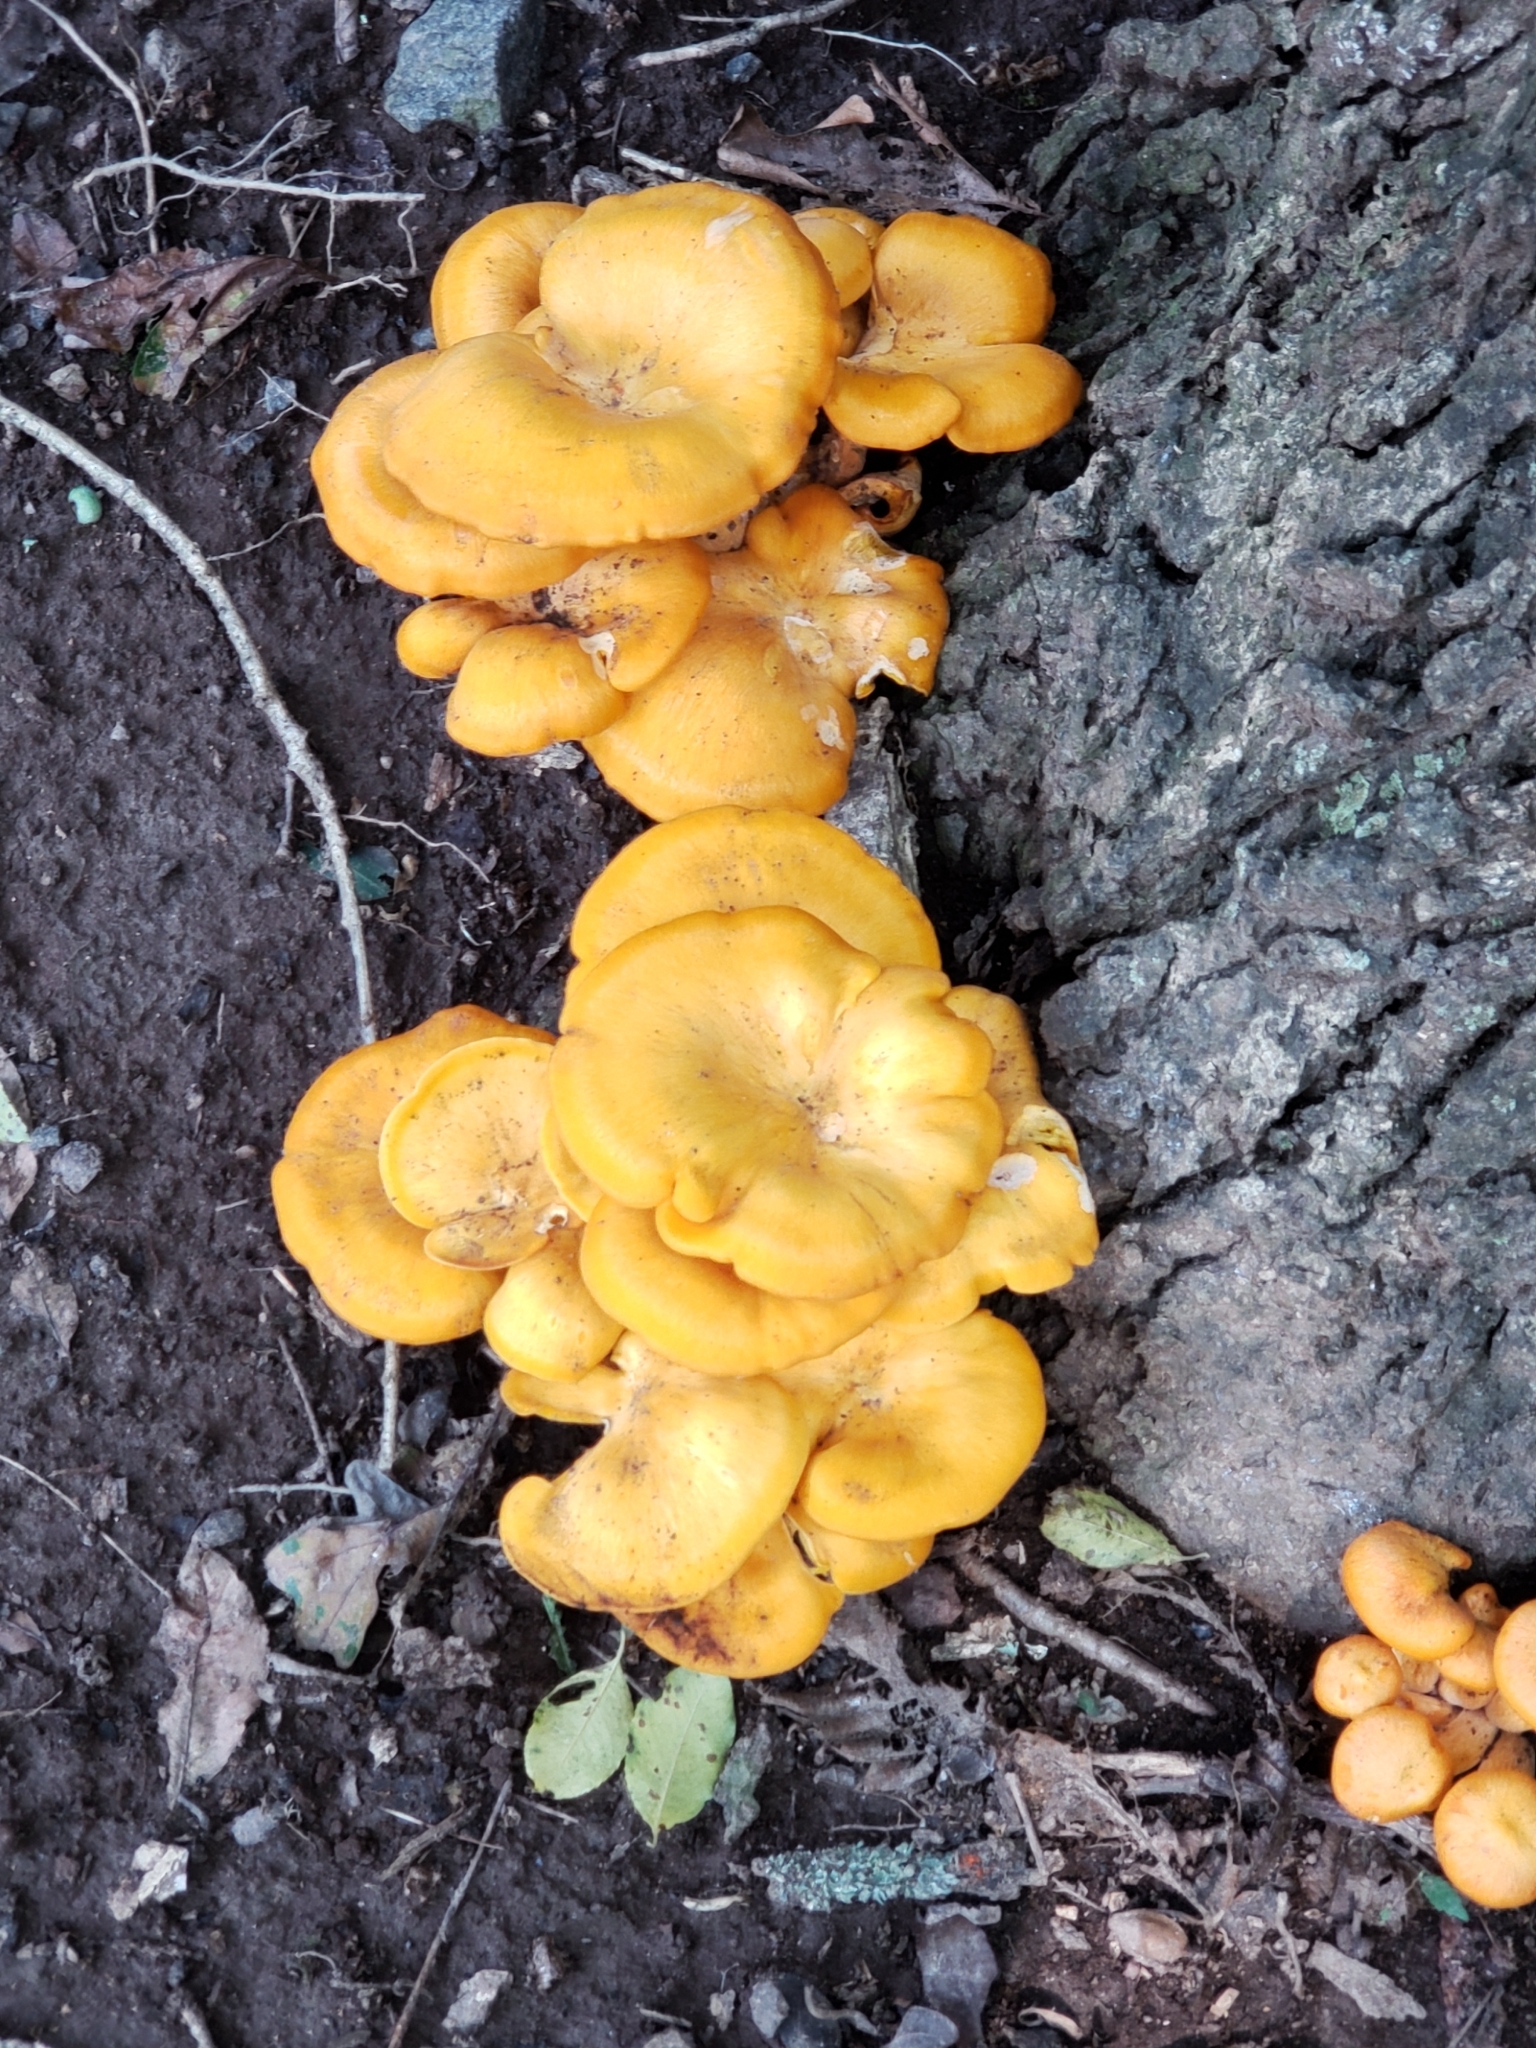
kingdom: Fungi
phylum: Basidiomycota
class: Agaricomycetes
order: Agaricales
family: Omphalotaceae
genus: Omphalotus
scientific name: Omphalotus illudens
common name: Jack o lantern
